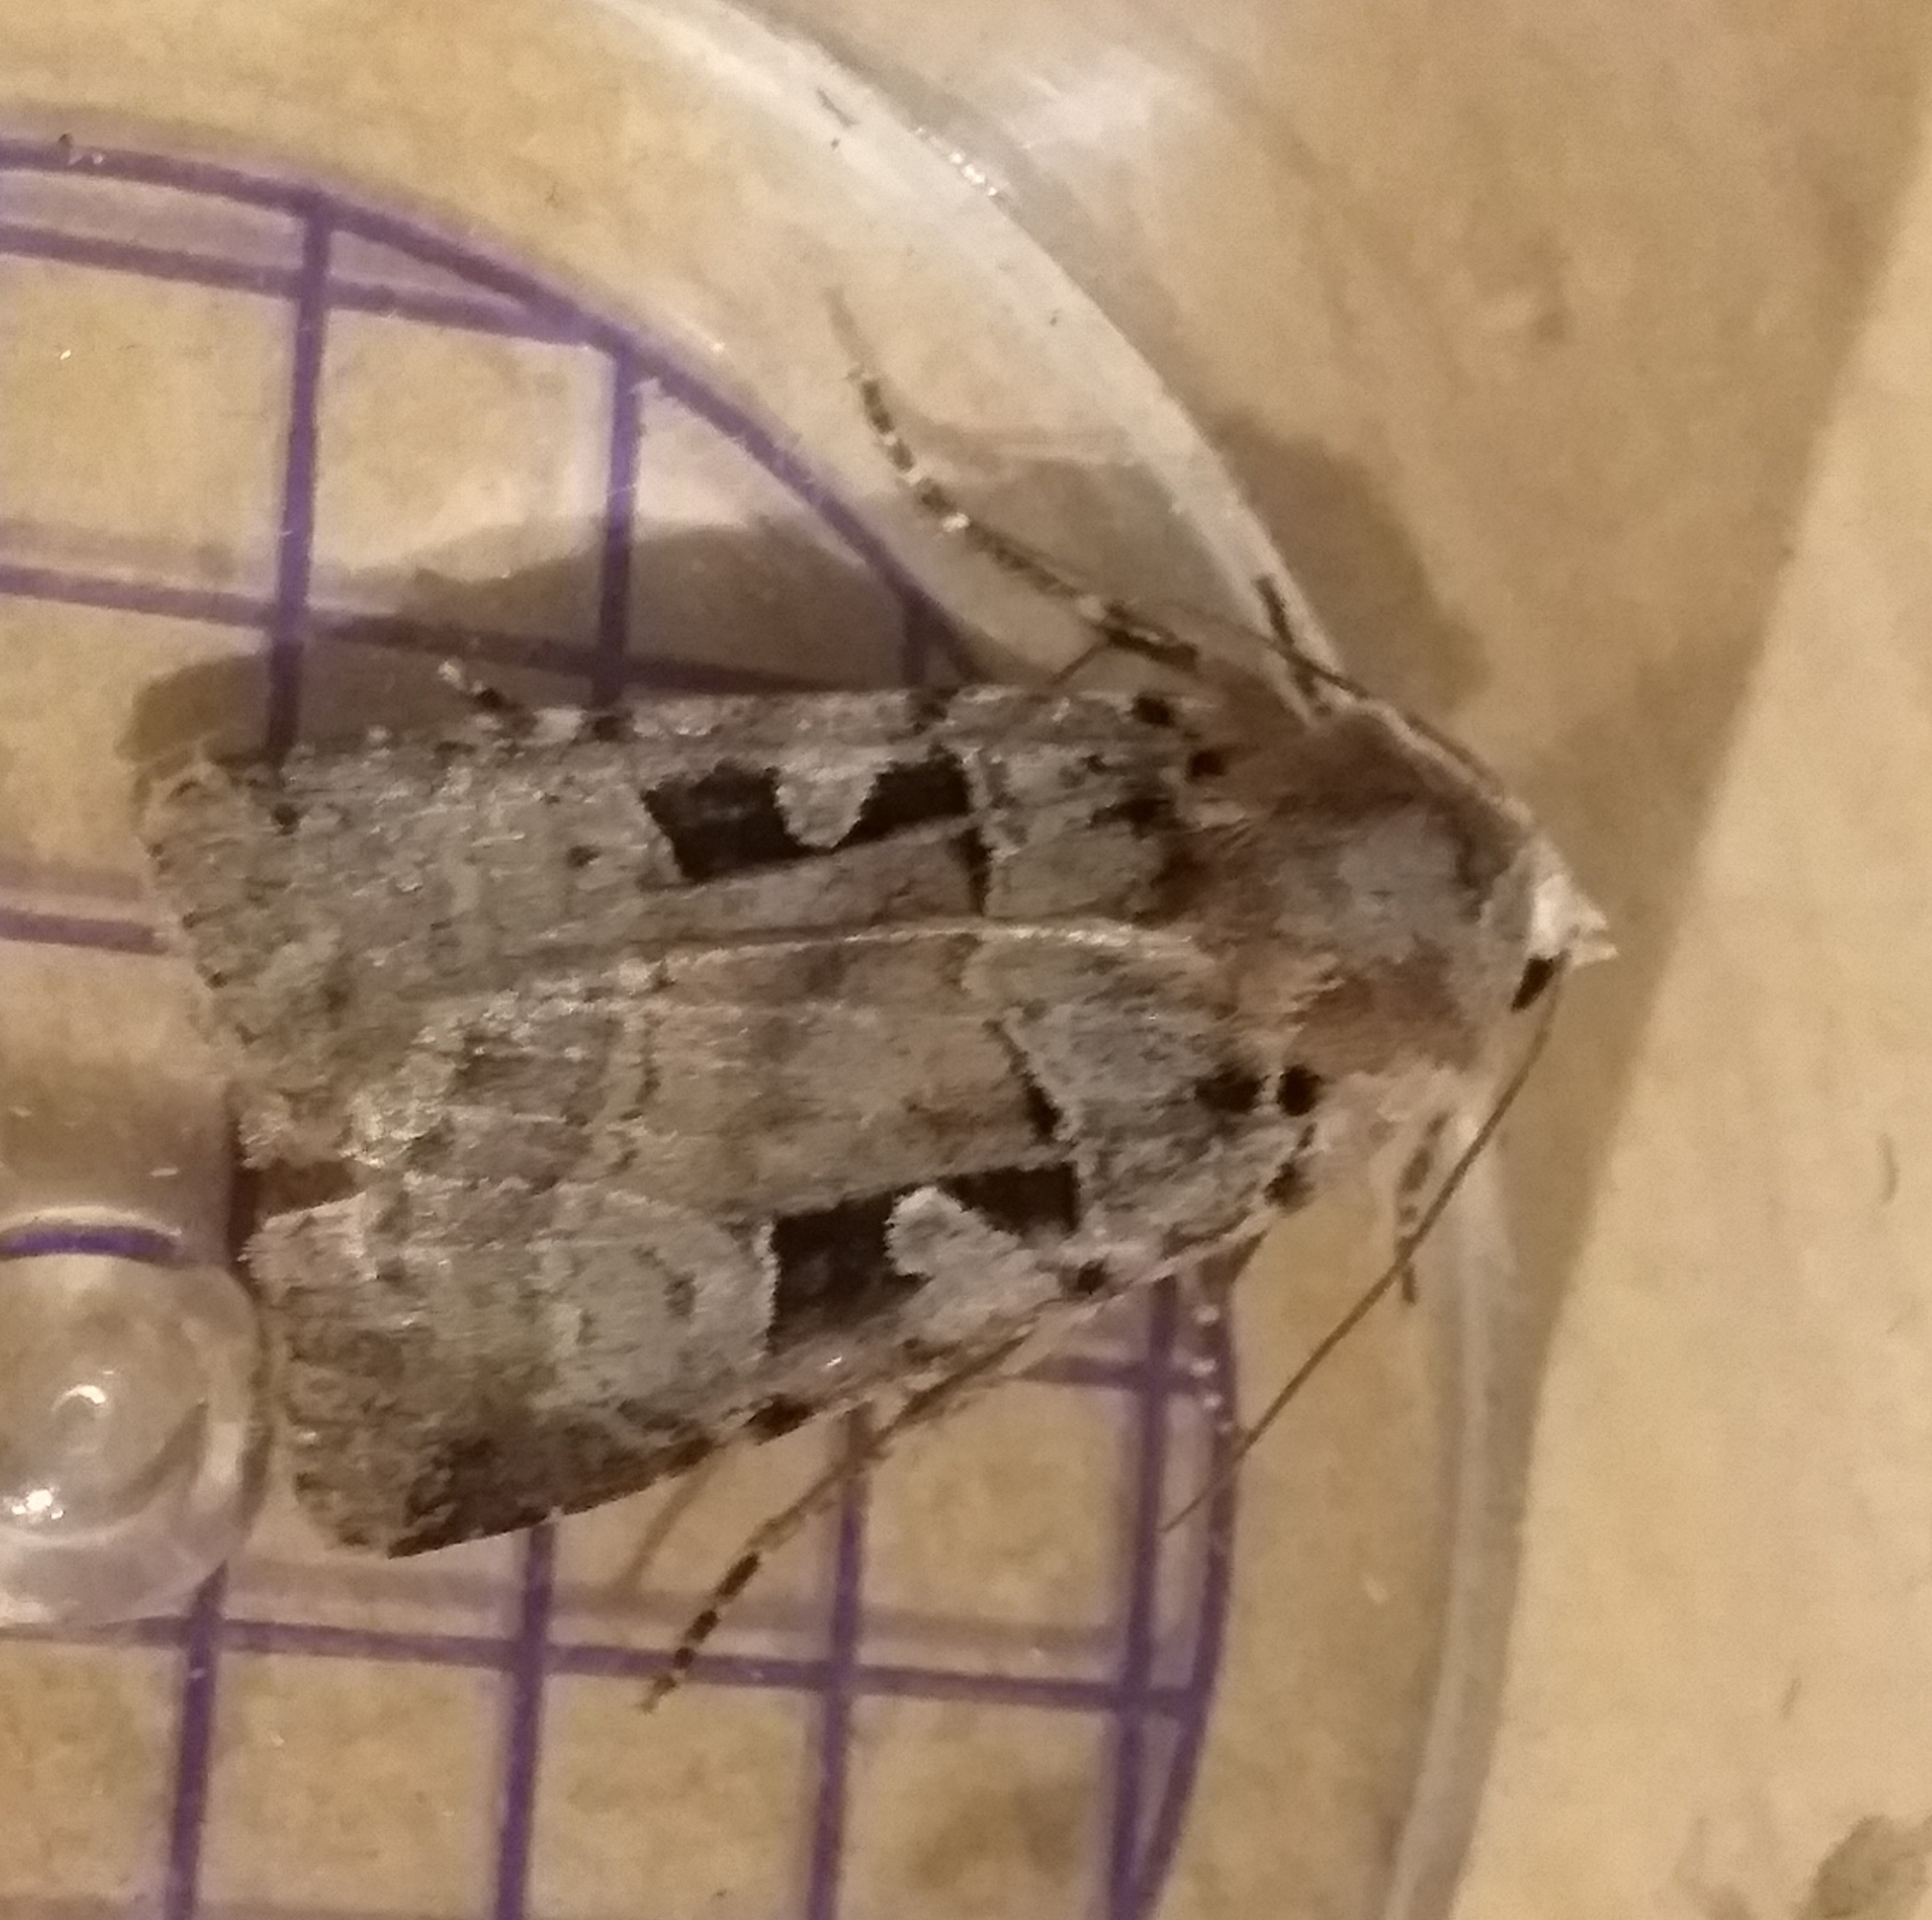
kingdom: Animalia
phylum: Arthropoda
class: Insecta
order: Lepidoptera
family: Noctuidae
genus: Xestia
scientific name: Xestia triangulum
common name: Double square-spot
